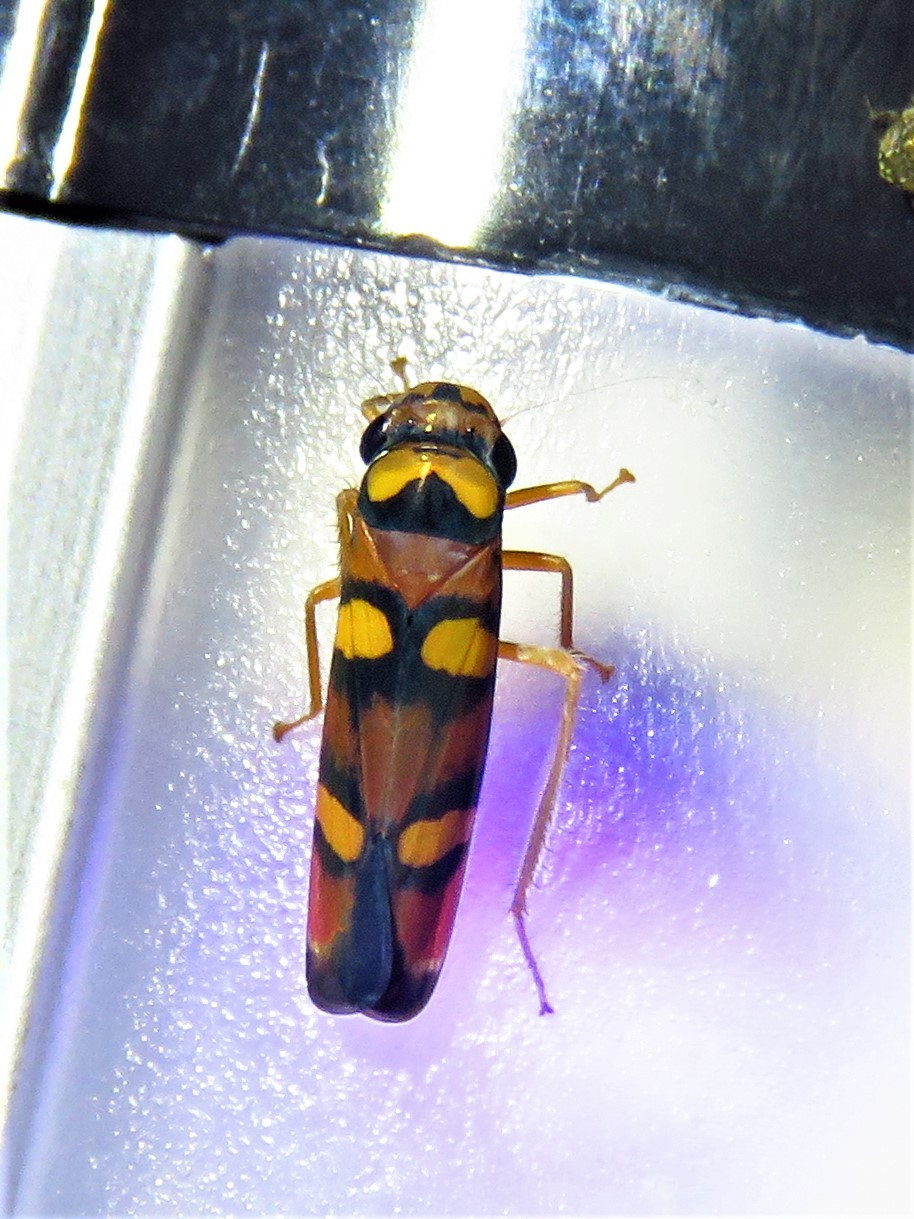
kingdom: Animalia
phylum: Arthropoda
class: Insecta
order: Hemiptera
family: Cicadellidae
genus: Pawiloma
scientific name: Pawiloma jucunda
